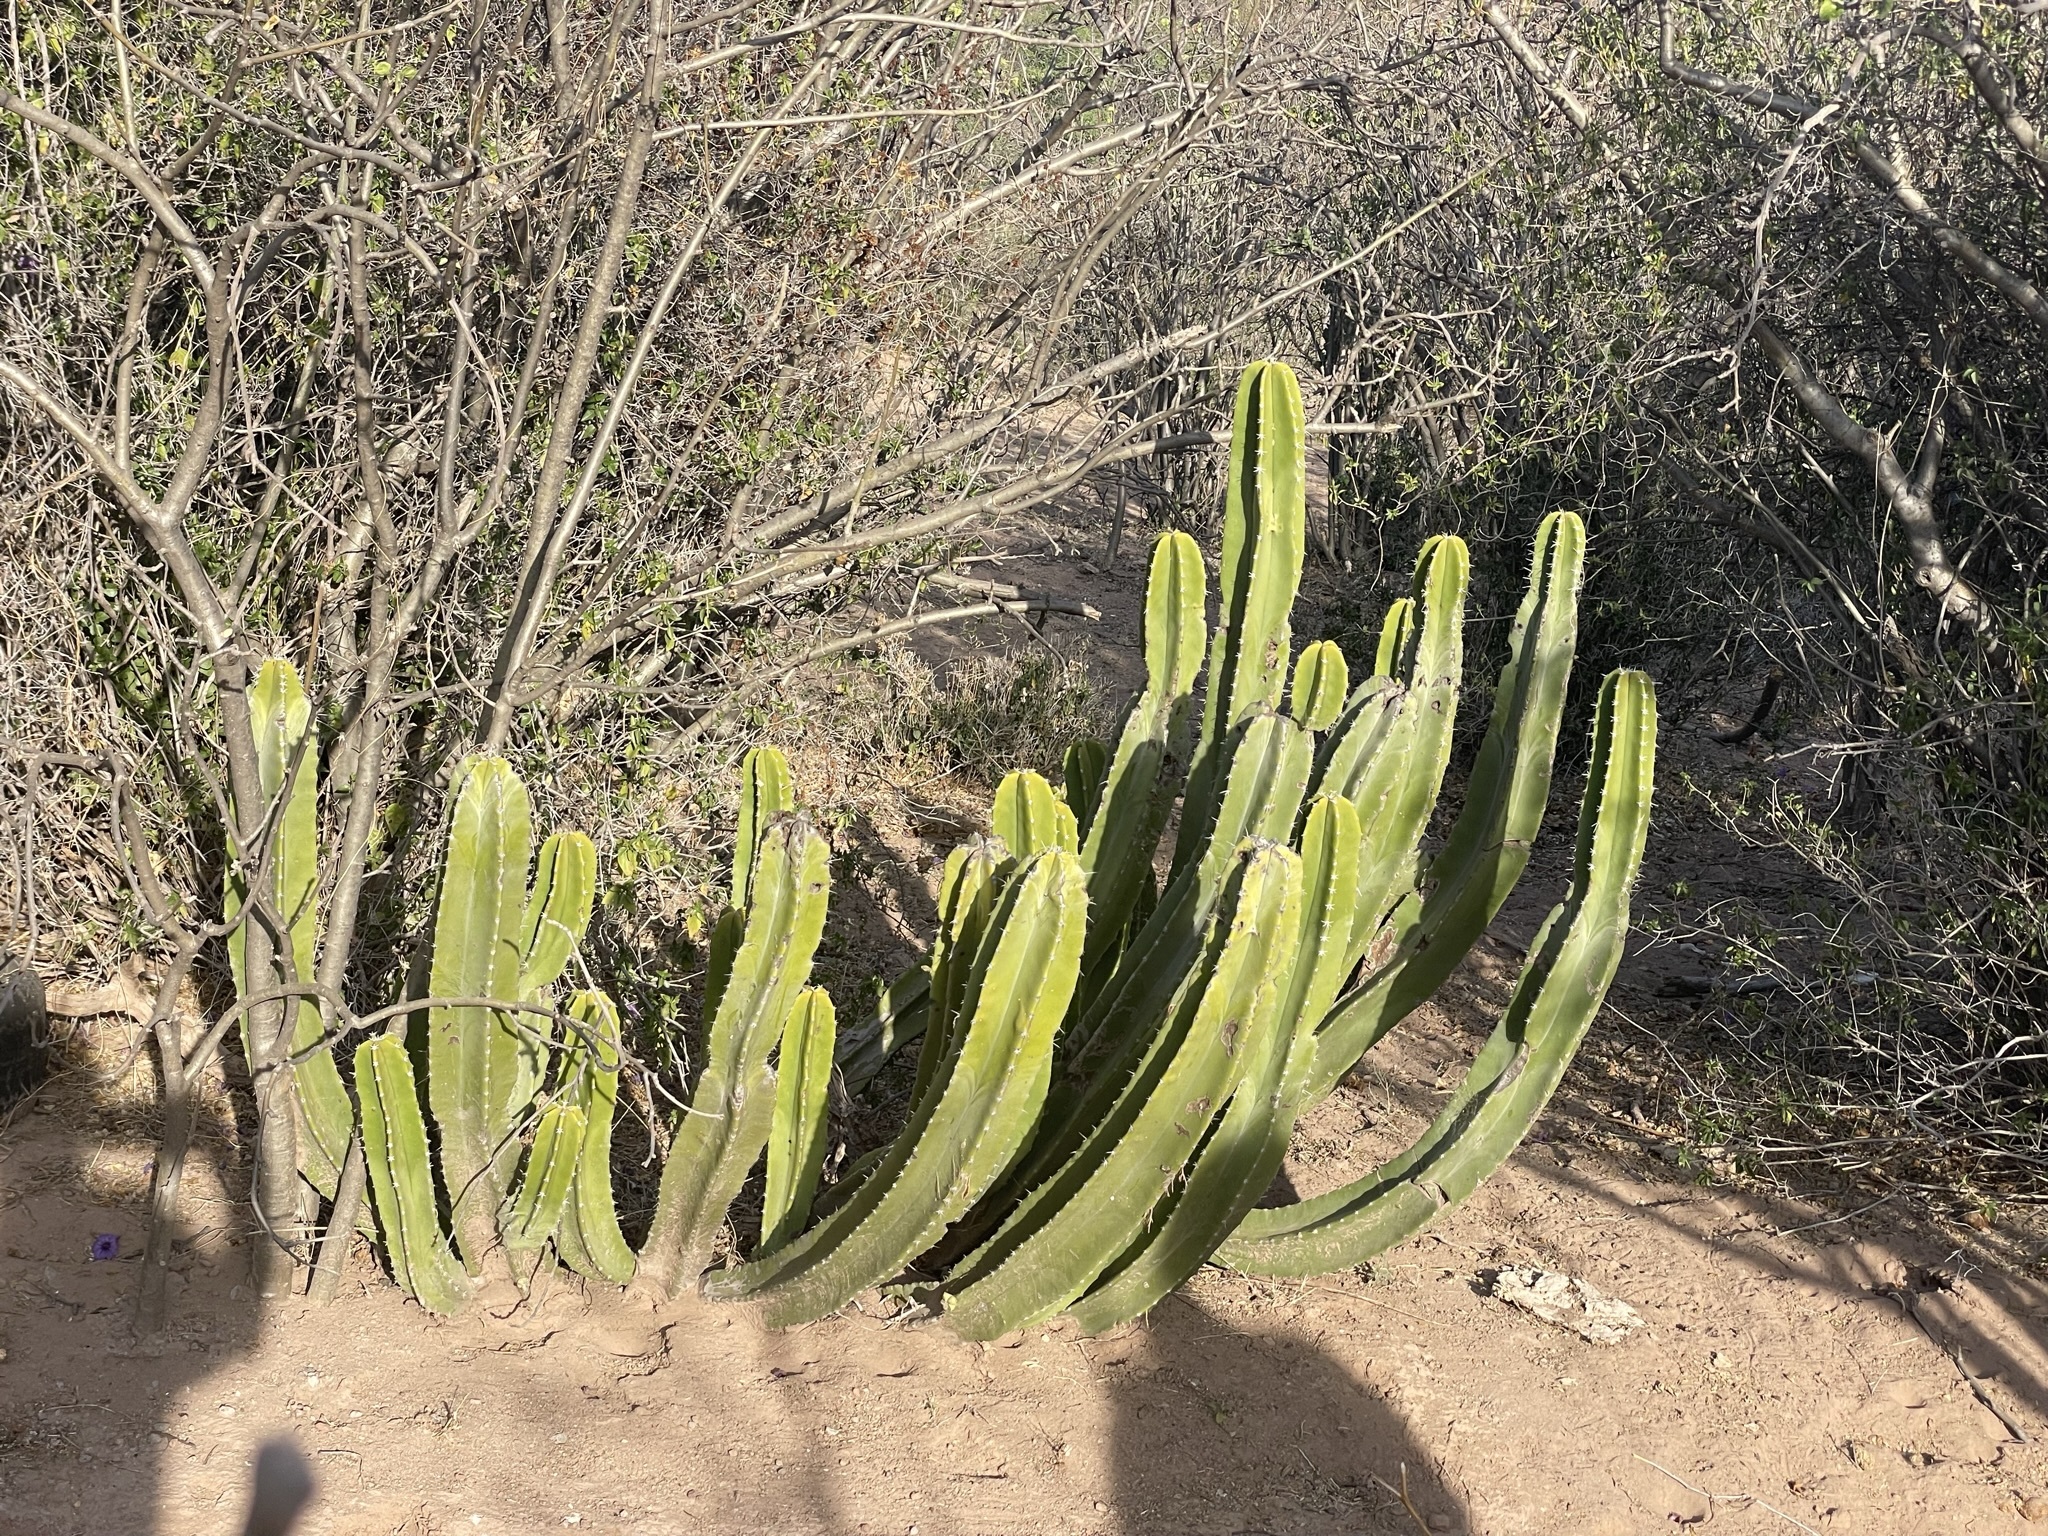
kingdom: Plantae
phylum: Tracheophyta
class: Magnoliopsida
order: Caryophyllales
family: Cactaceae
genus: Pachycereus
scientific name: Pachycereus schottii
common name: Senita cactus
